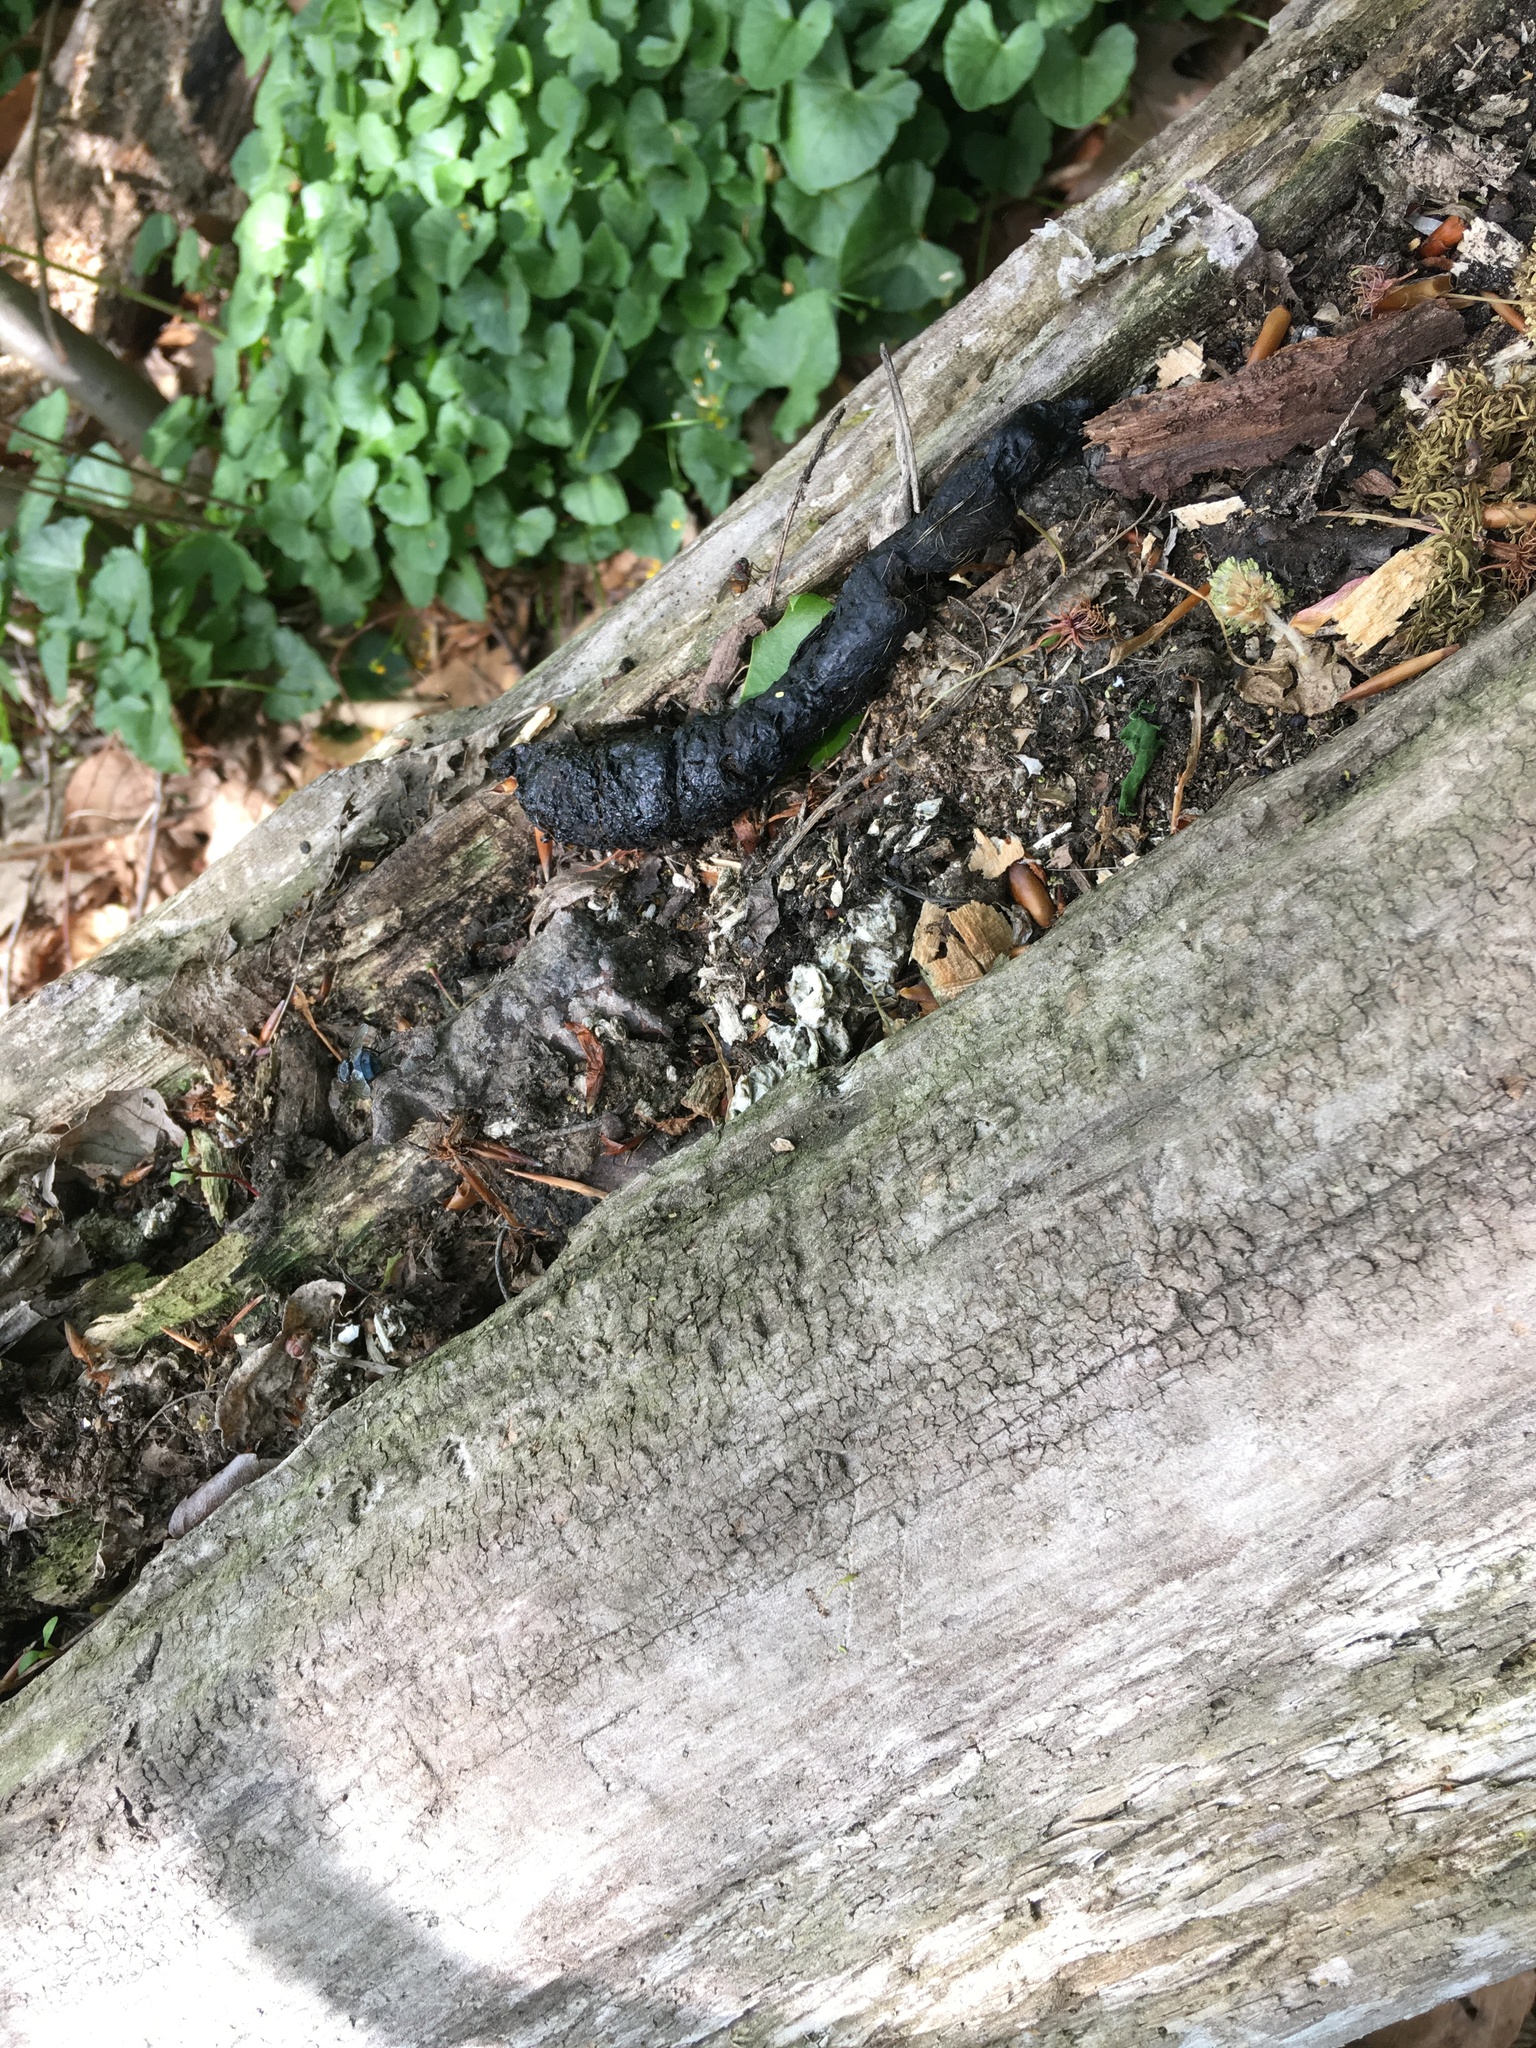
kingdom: Animalia
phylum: Chordata
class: Mammalia
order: Carnivora
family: Canidae
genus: Canis
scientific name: Canis latrans
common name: Coyote
